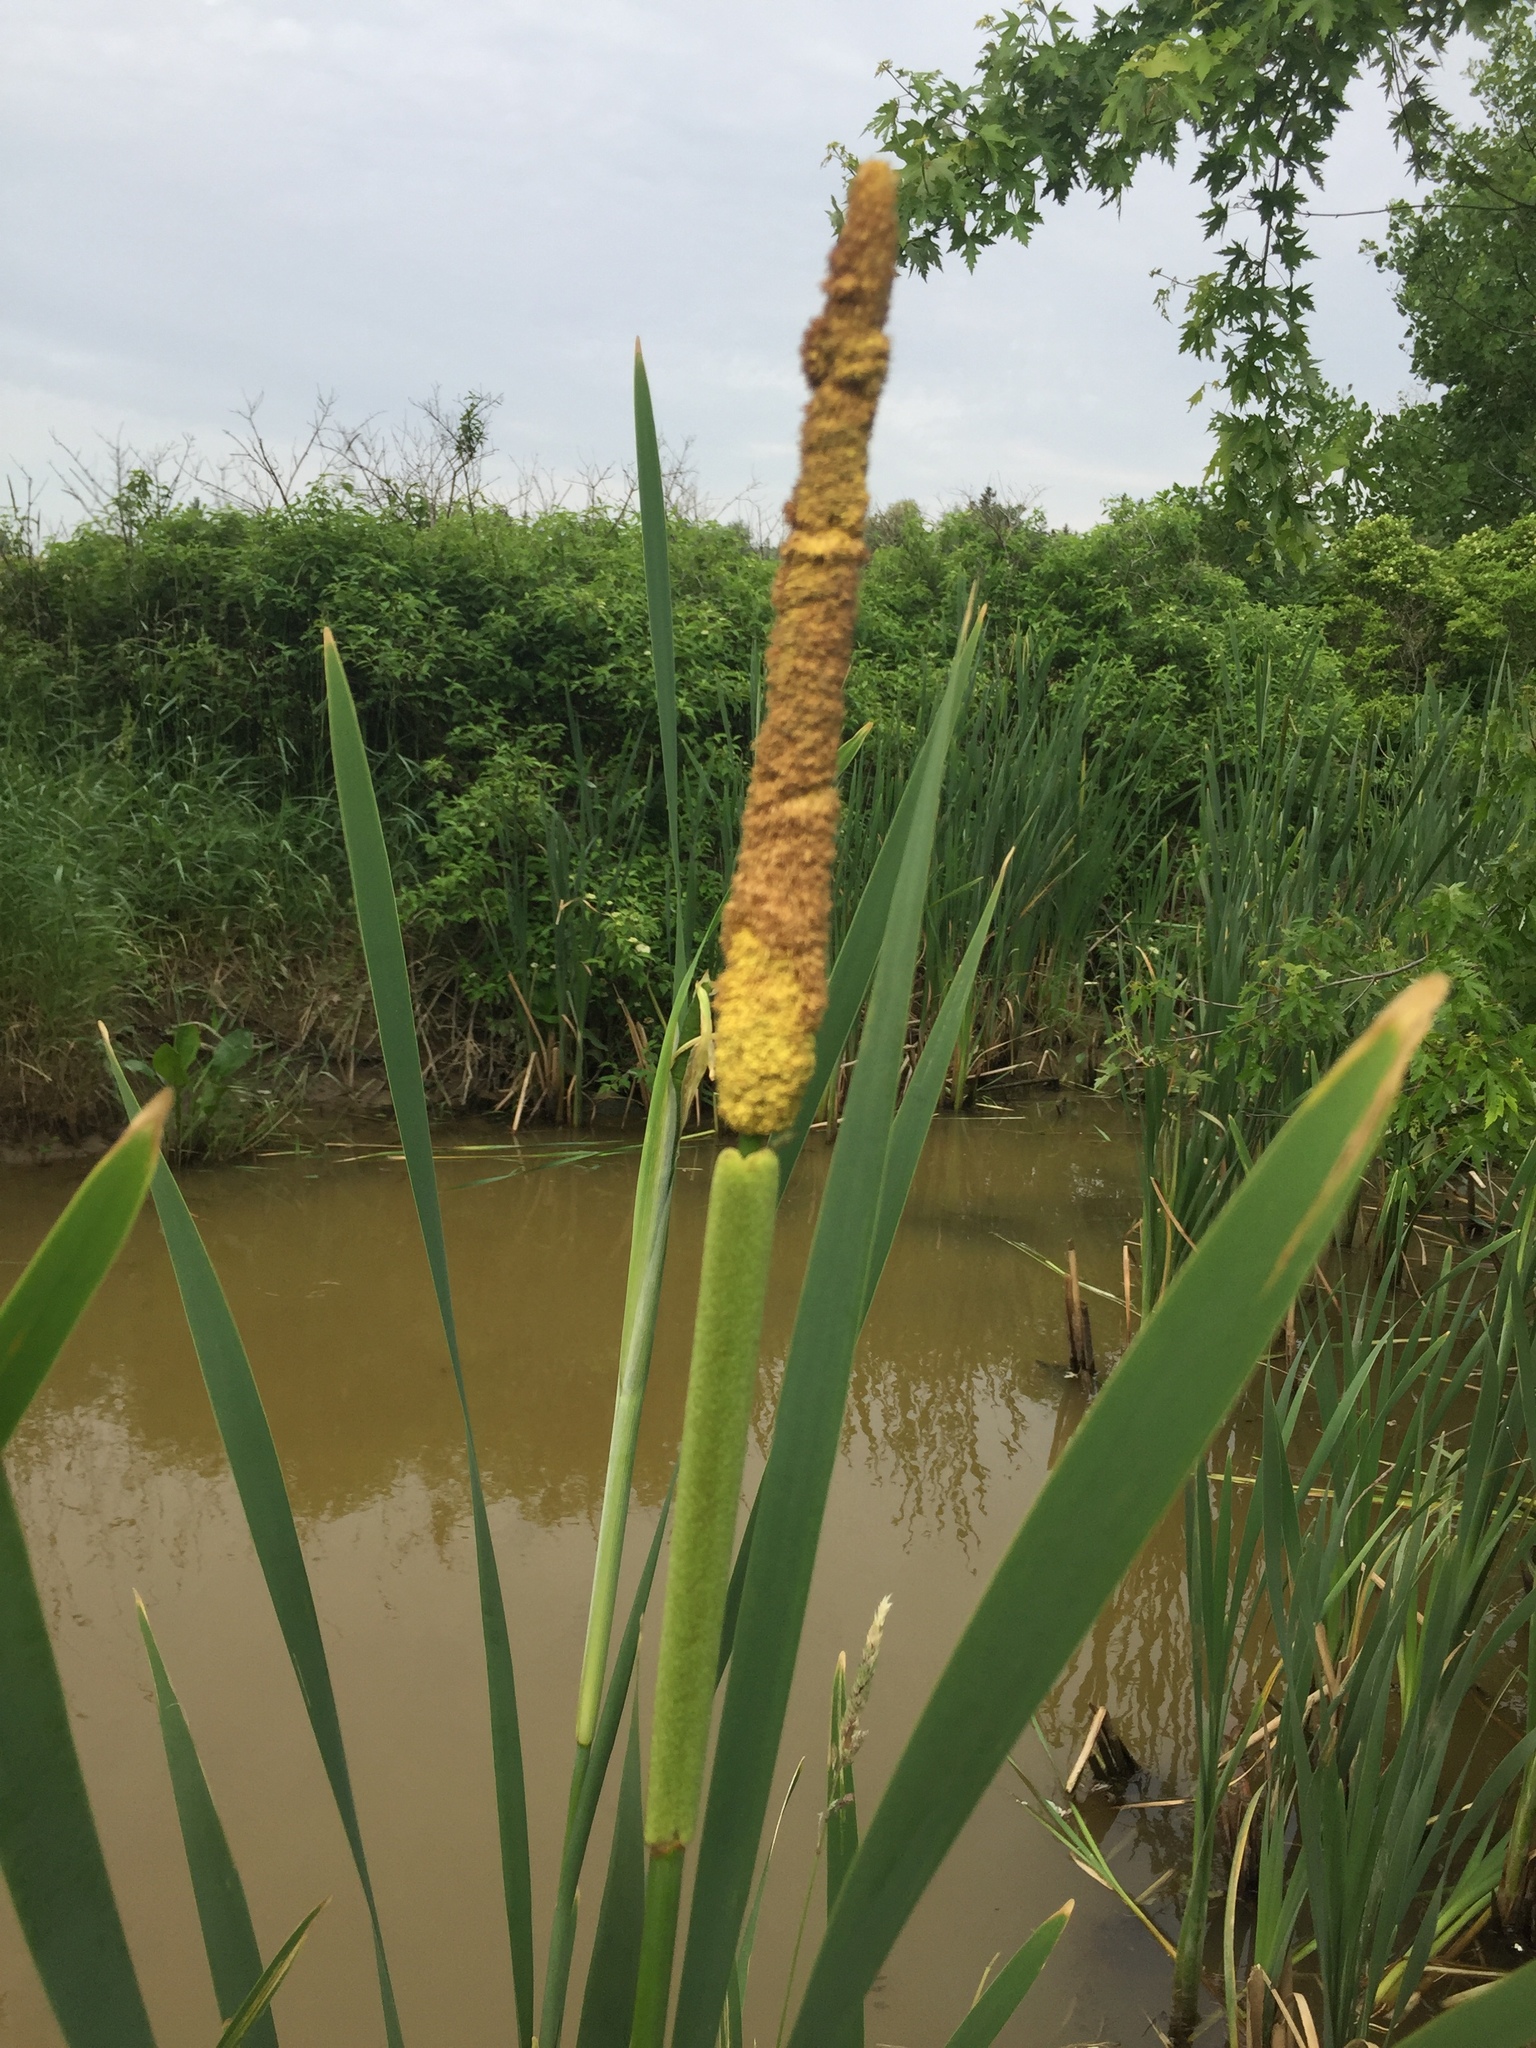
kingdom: Plantae
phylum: Tracheophyta
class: Liliopsida
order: Poales
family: Typhaceae
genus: Typha
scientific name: Typha glauca
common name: Blue cattail
